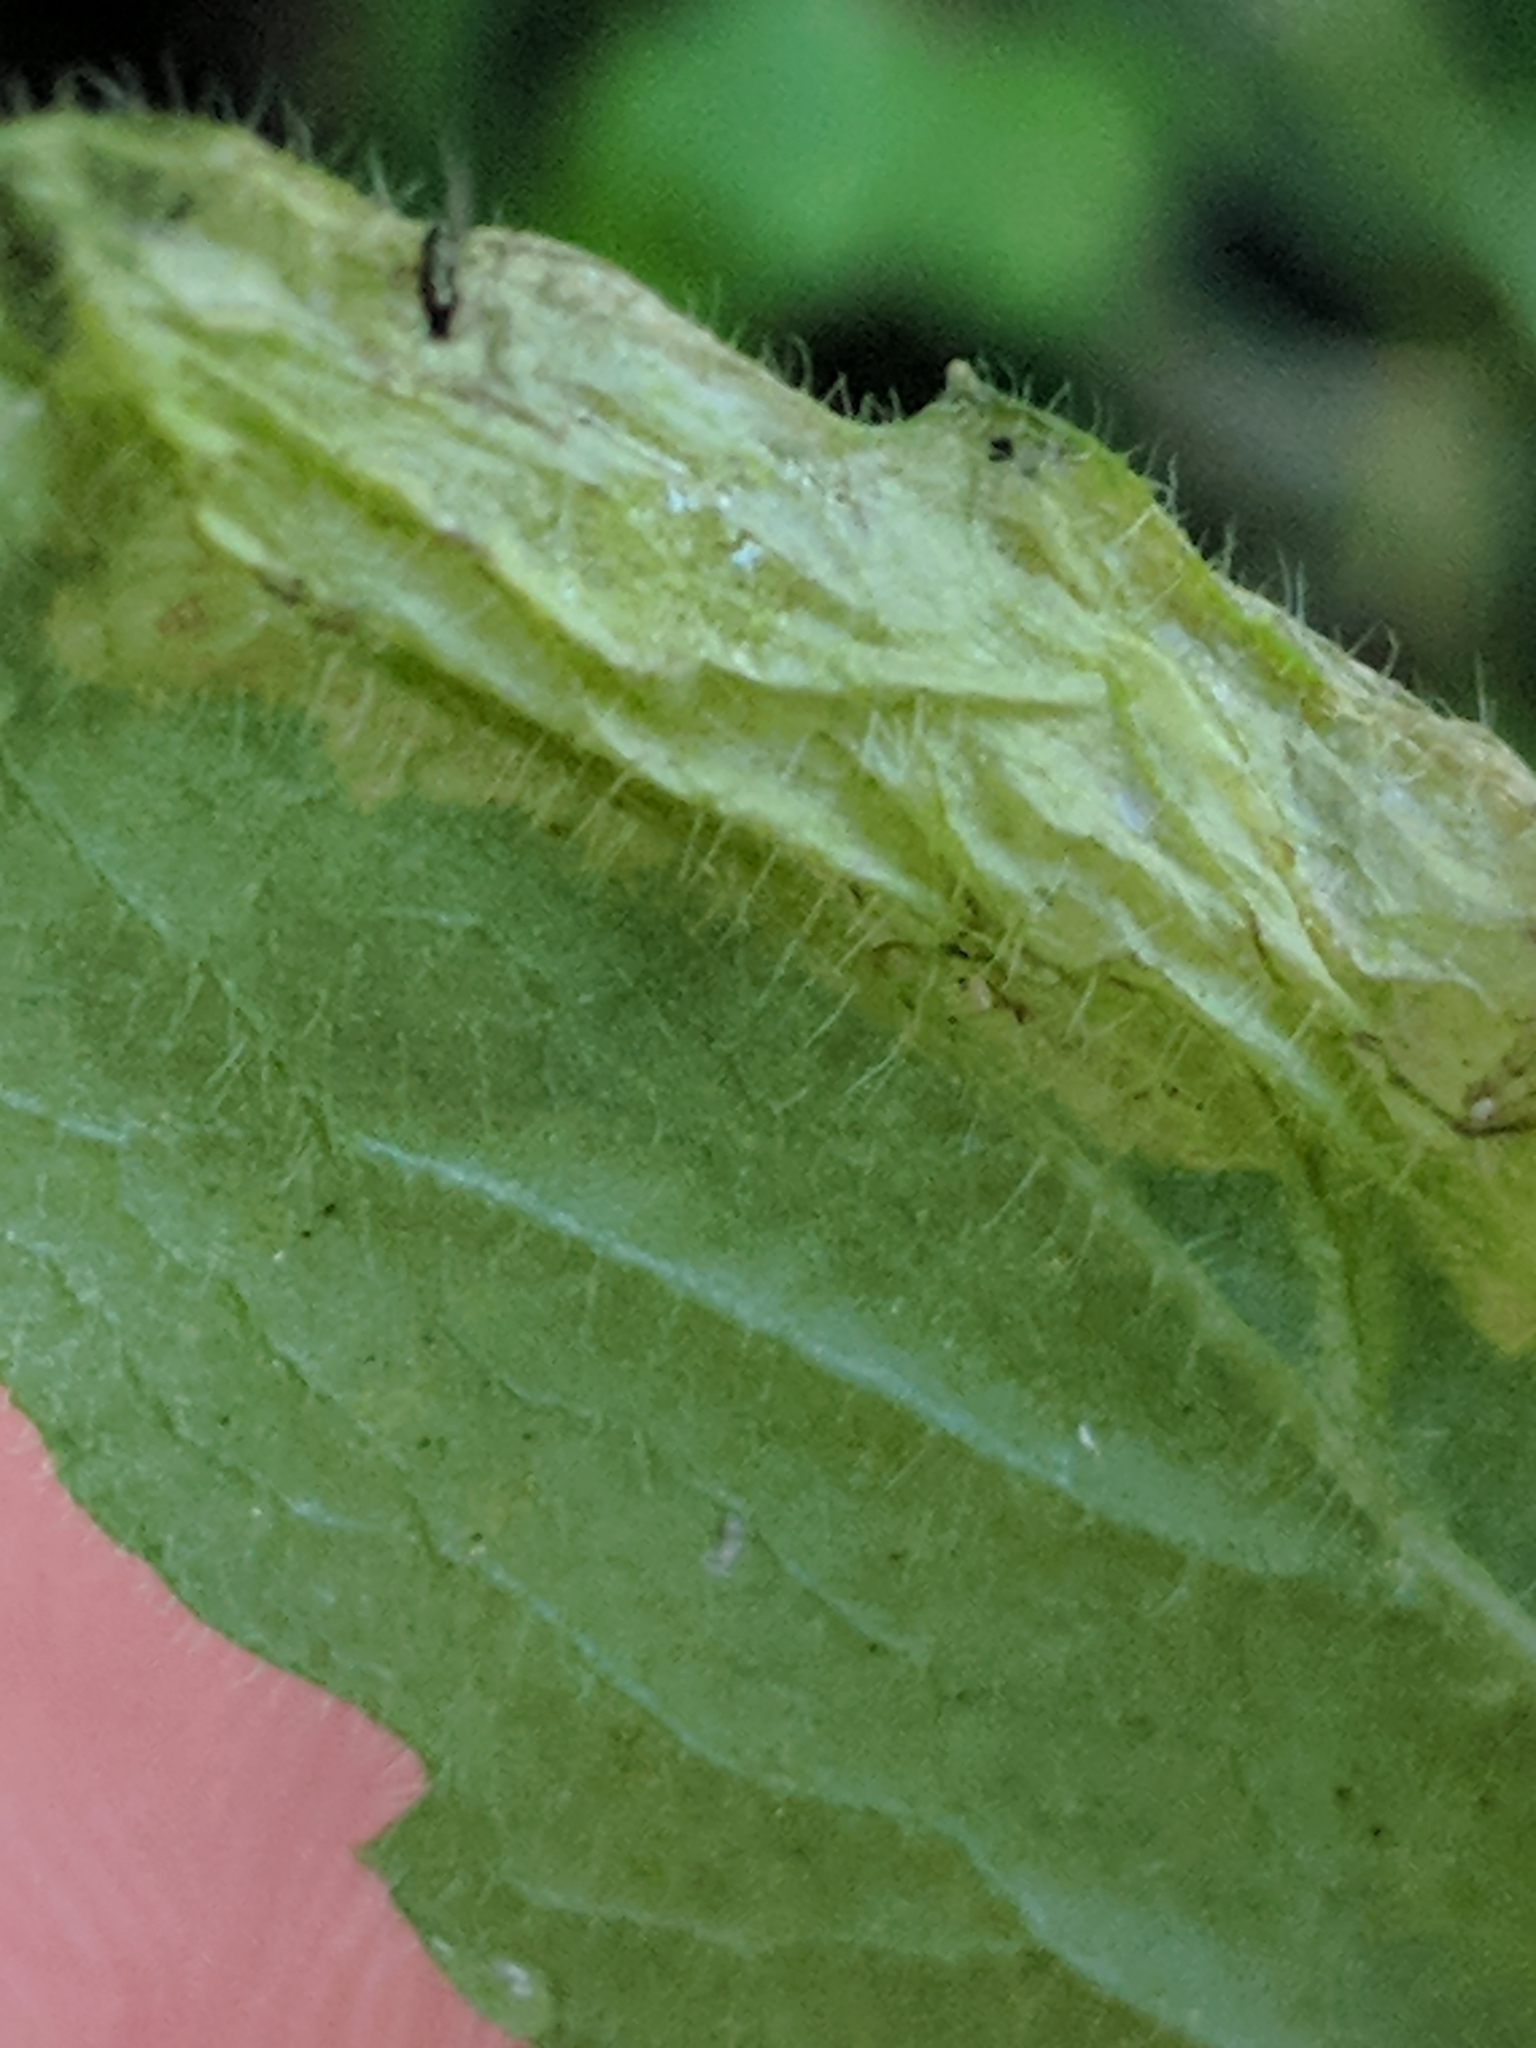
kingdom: Animalia
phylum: Arthropoda
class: Insecta
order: Lepidoptera
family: Gracillariidae
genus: Parectopa
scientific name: Parectopa plantaginisella
